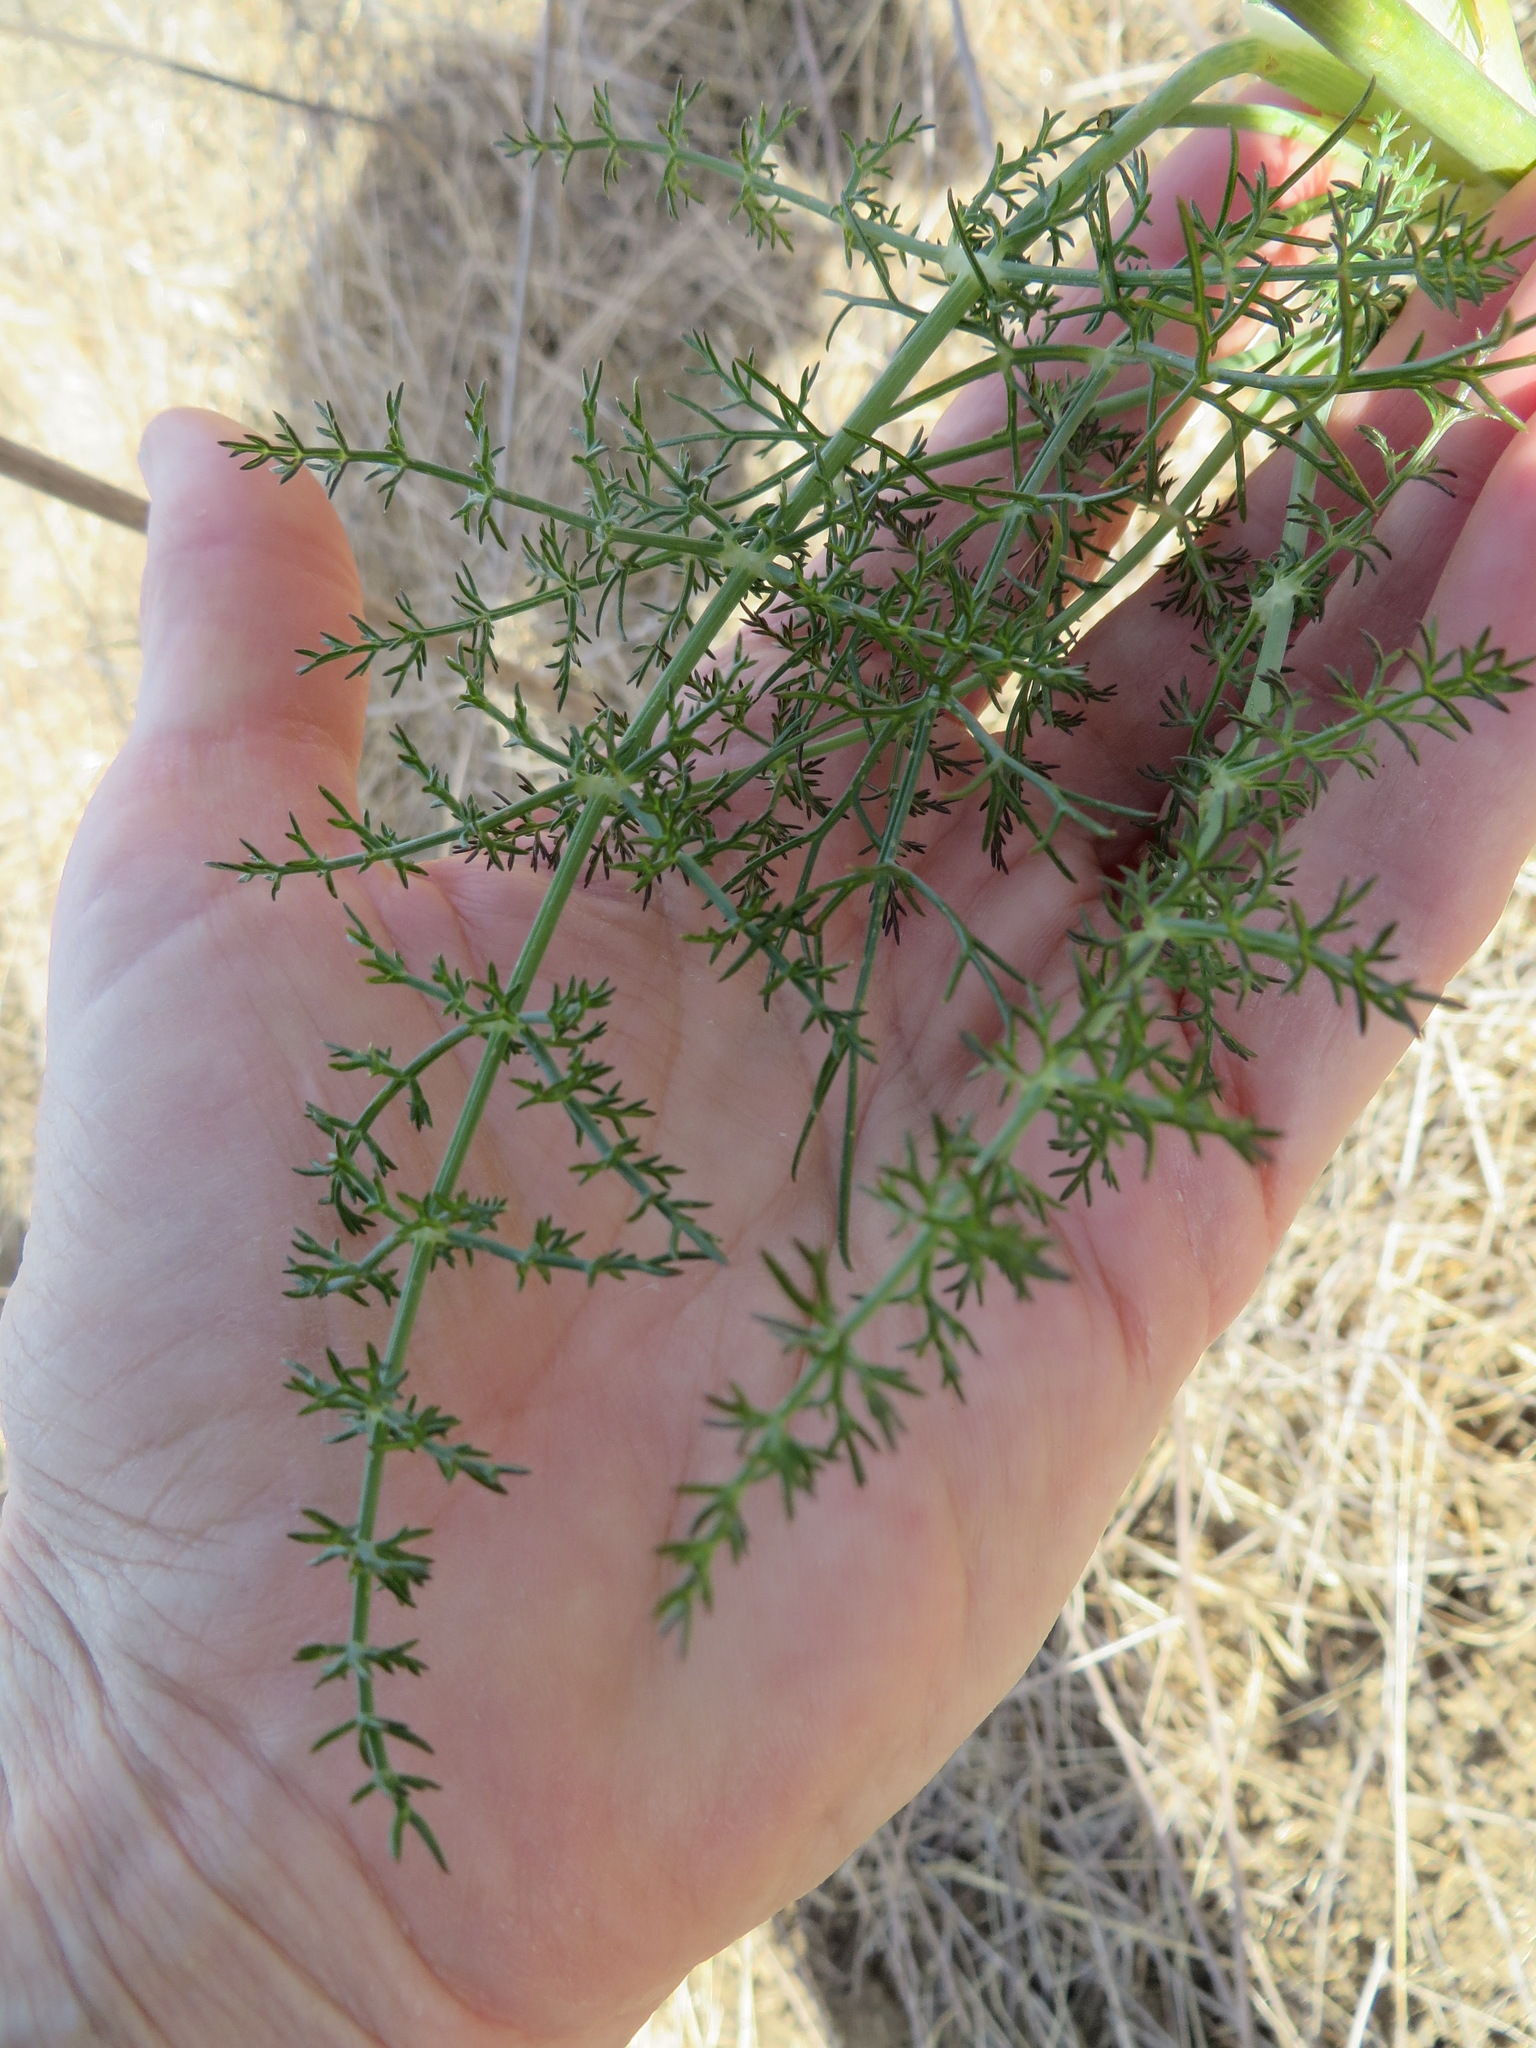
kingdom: Plantae
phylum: Tracheophyta
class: Magnoliopsida
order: Apiales
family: Apiaceae
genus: Foeniculum
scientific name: Foeniculum vulgare
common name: Fennel
